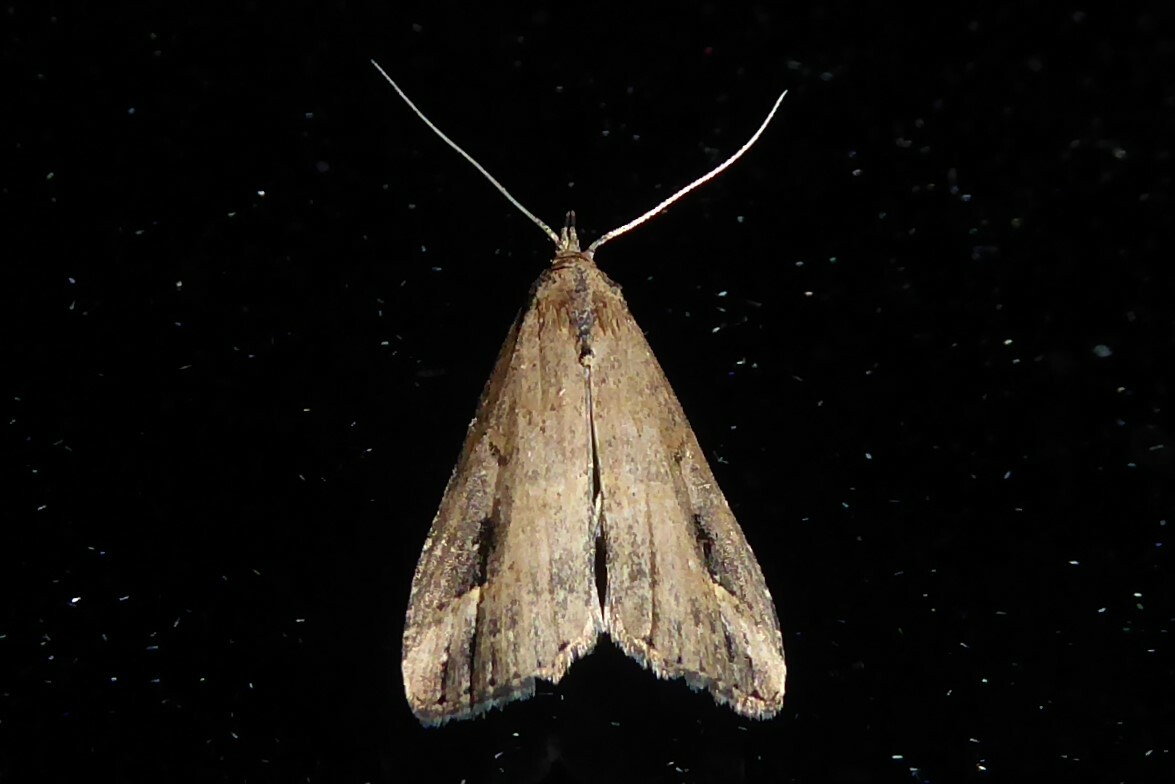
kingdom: Animalia
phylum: Arthropoda
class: Insecta
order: Lepidoptera
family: Erebidae
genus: Schrankia
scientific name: Schrankia costaestrigalis
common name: Pinion-streaked snout
